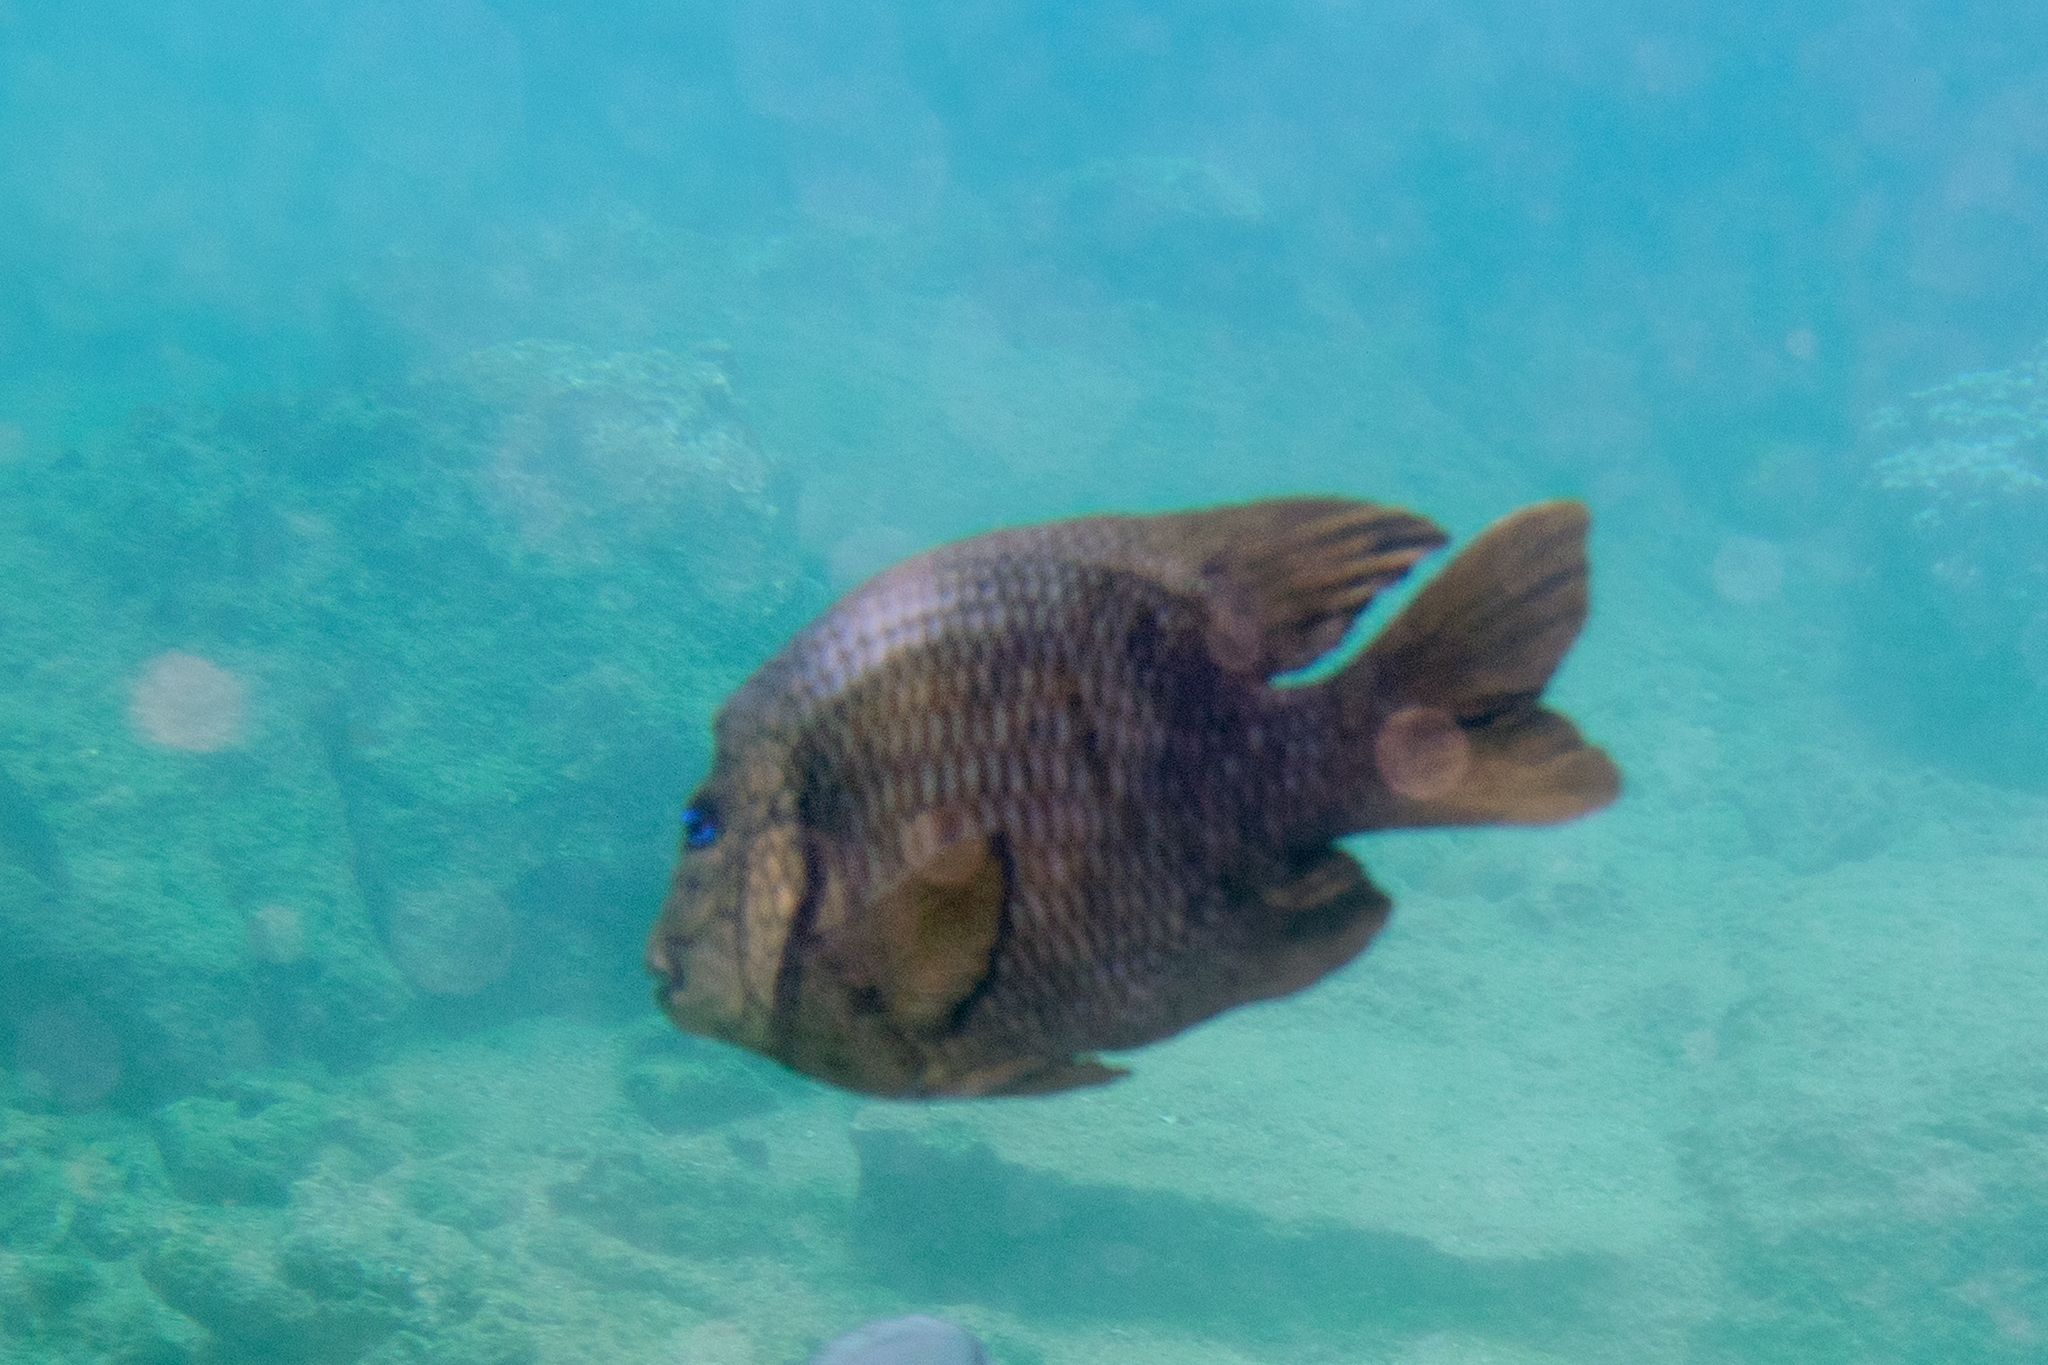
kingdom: Animalia
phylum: Chordata
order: Perciformes
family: Pomacentridae
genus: Microspathodon
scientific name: Microspathodon bairdii
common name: Bumphead damselfish
